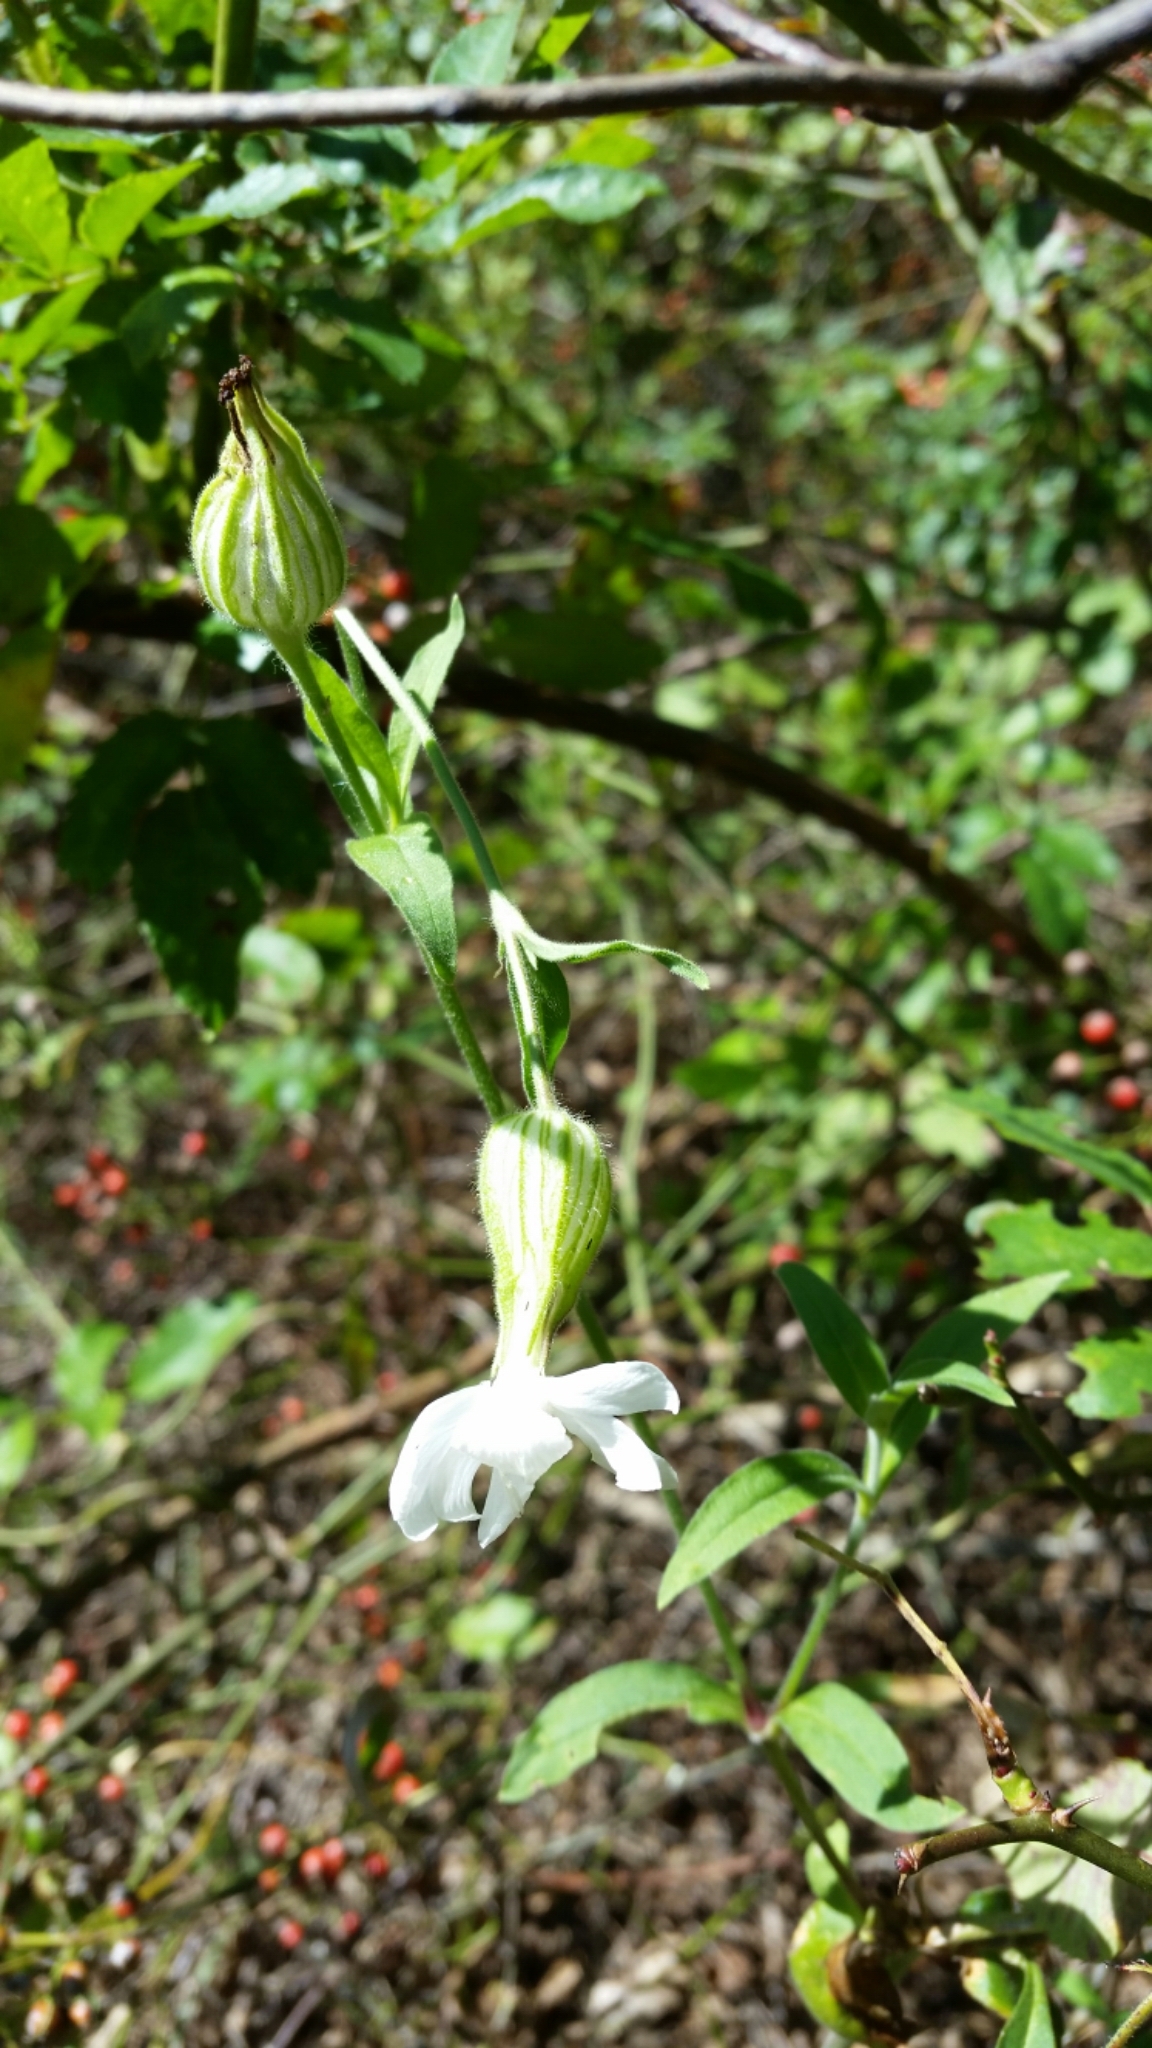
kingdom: Plantae
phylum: Tracheophyta
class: Magnoliopsida
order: Caryophyllales
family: Caryophyllaceae
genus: Silene
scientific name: Silene latifolia
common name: White campion
